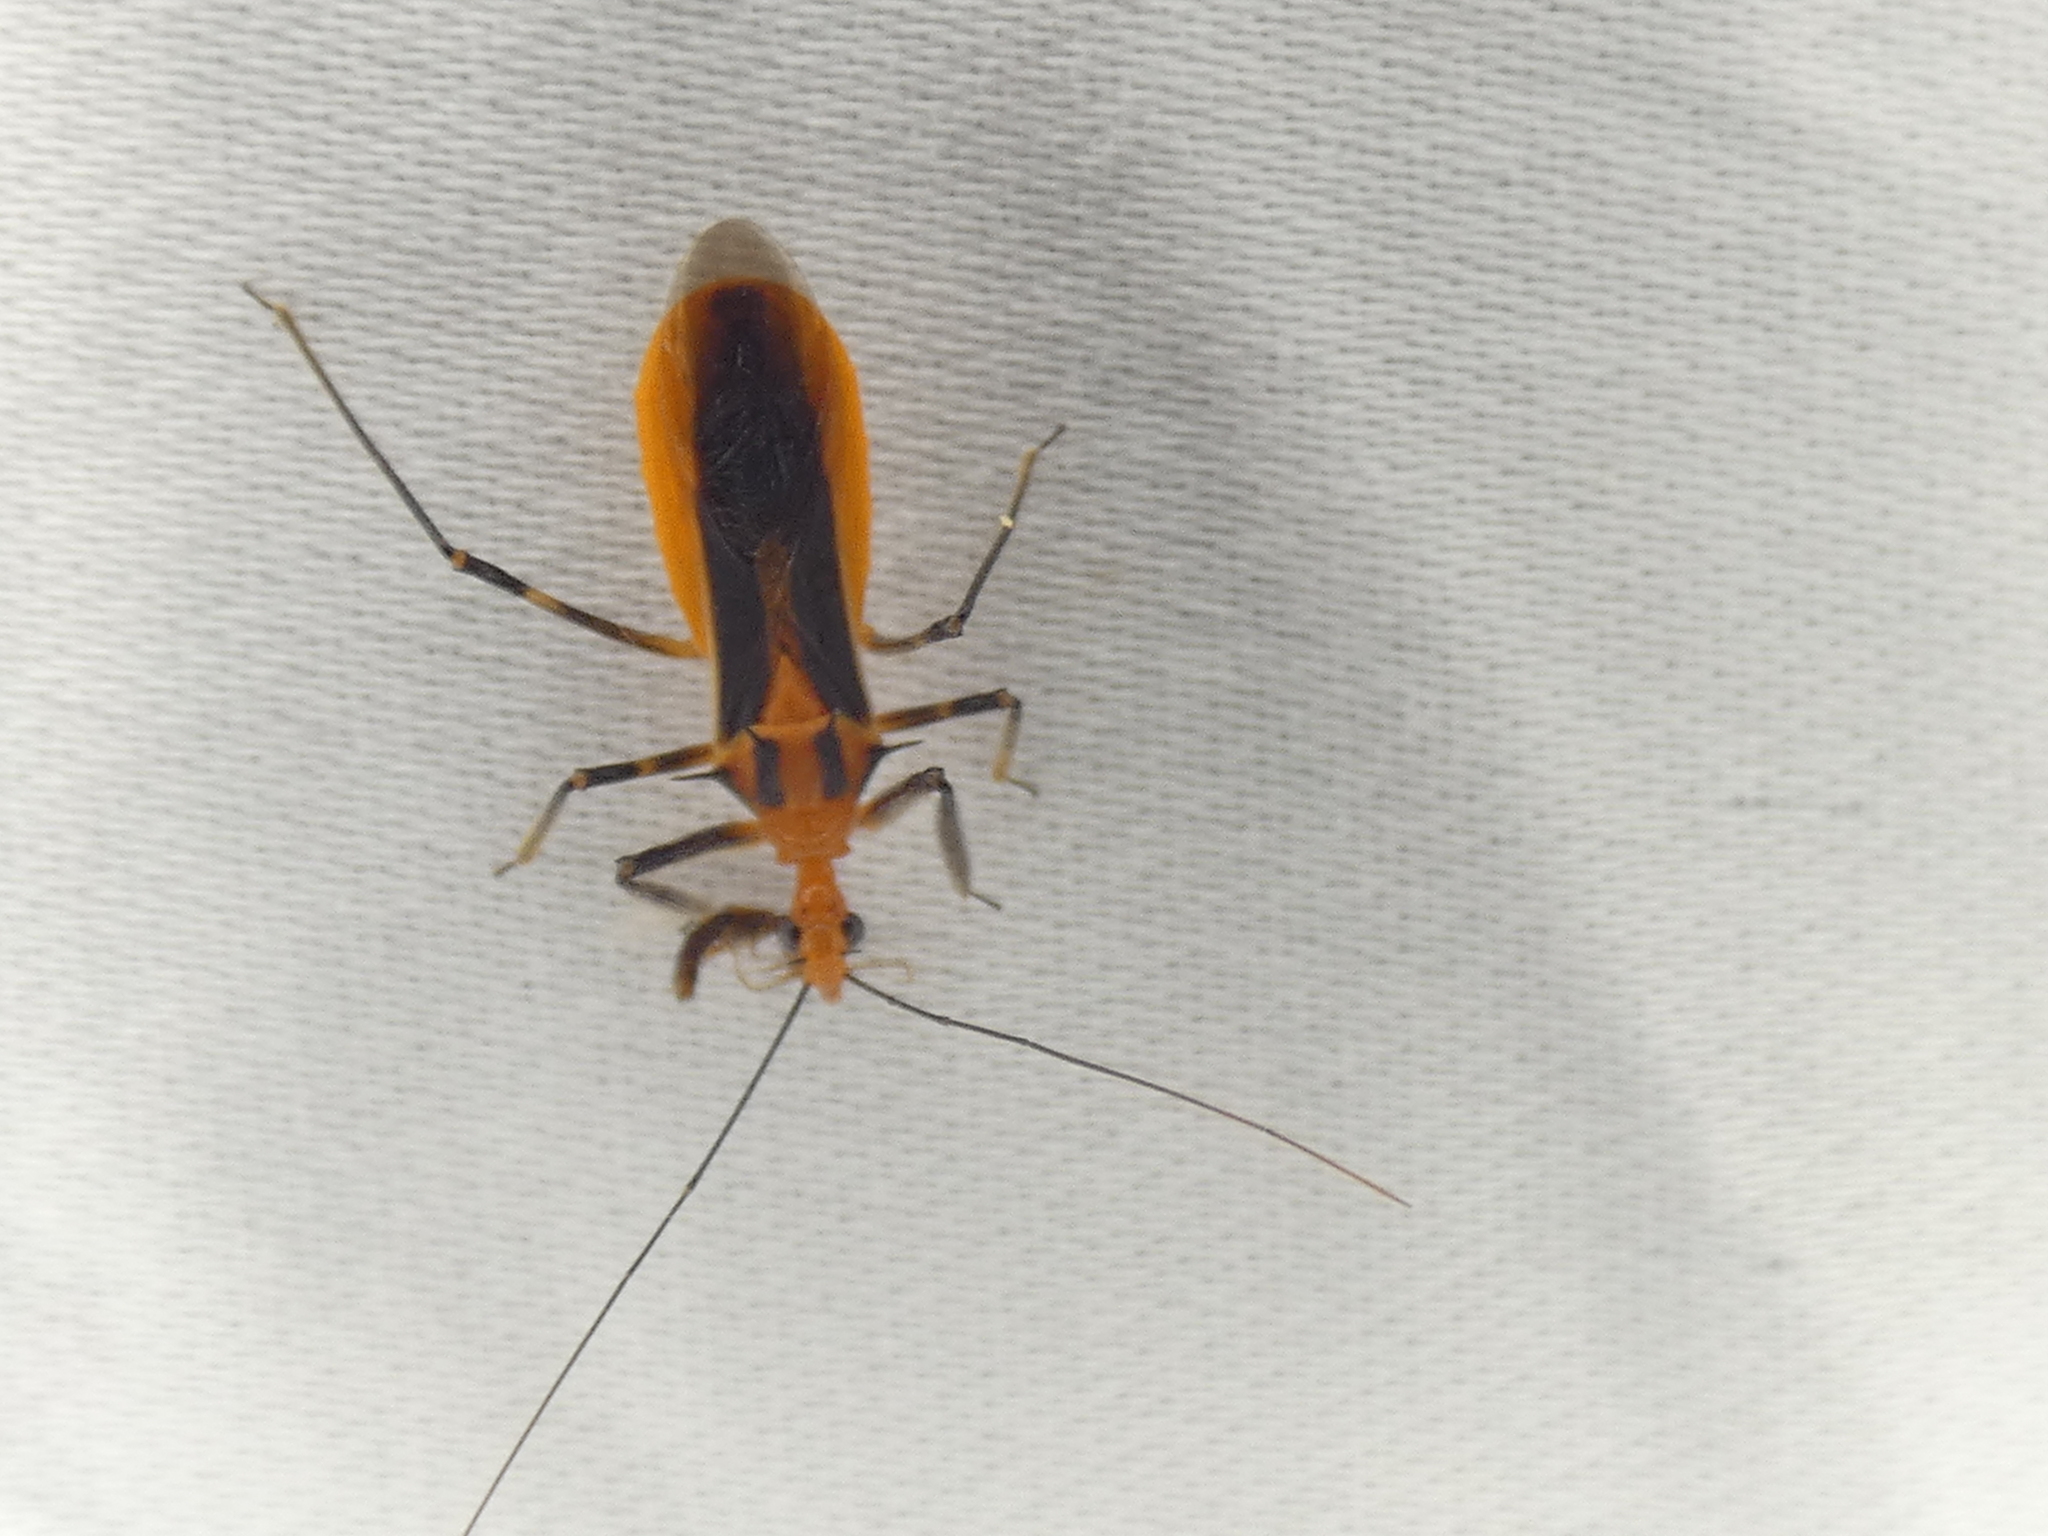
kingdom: Animalia
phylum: Arthropoda
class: Insecta
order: Hemiptera
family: Reduviidae
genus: Repipta
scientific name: Repipta taurus
